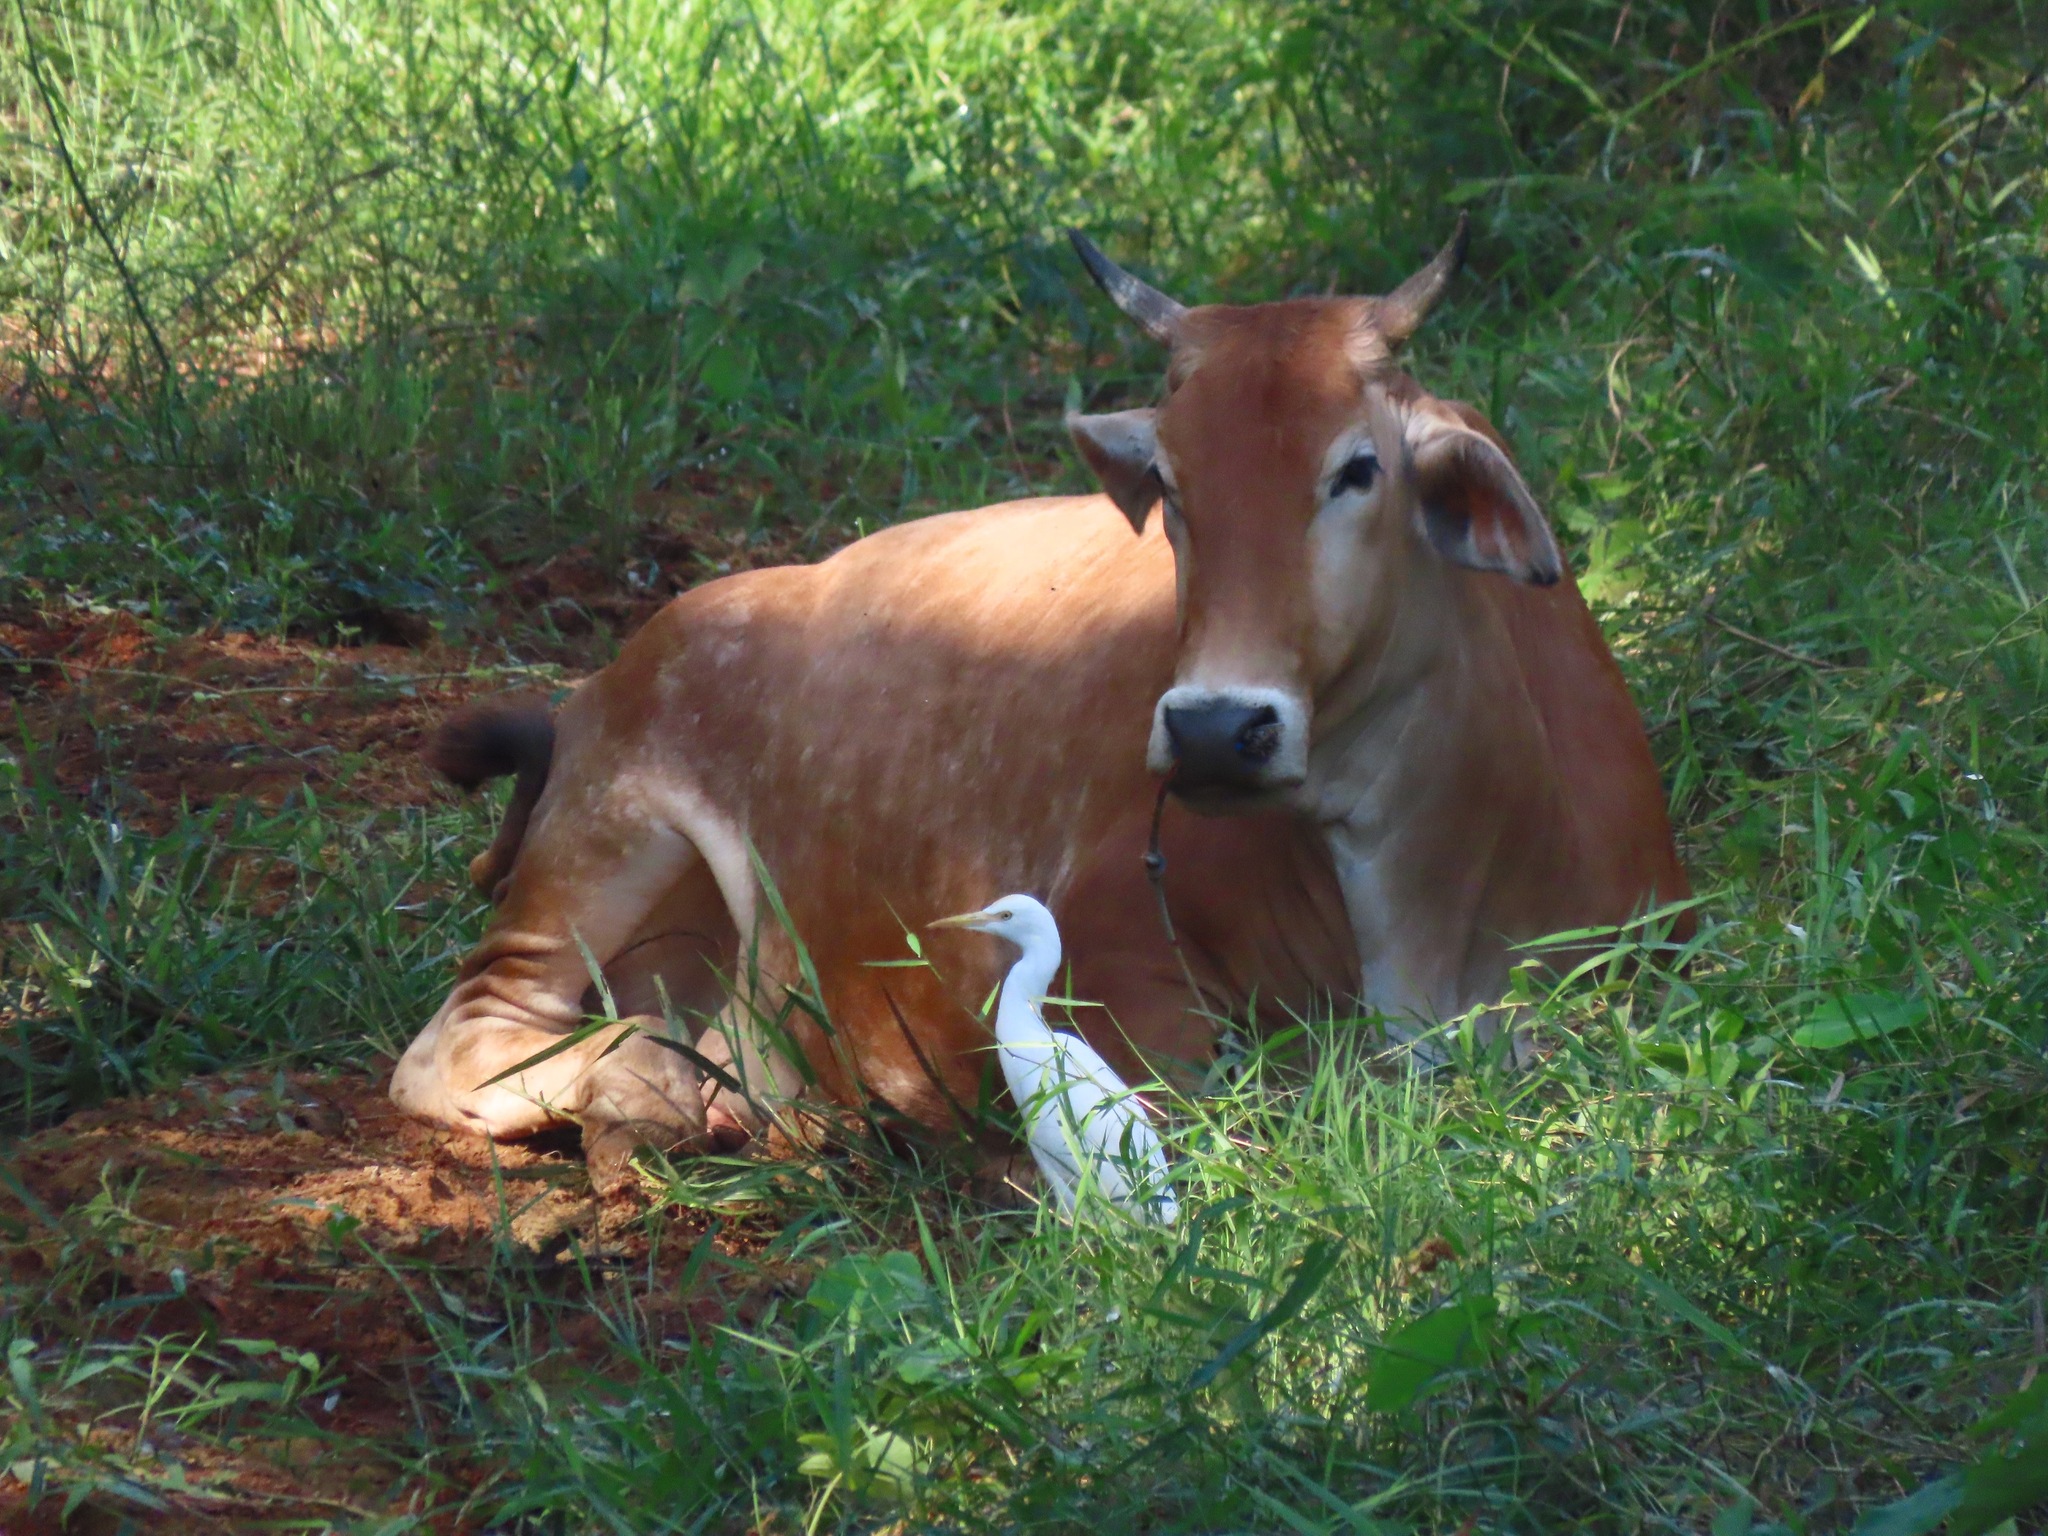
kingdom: Animalia
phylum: Chordata
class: Aves
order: Pelecaniformes
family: Ardeidae
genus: Bubulcus
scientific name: Bubulcus coromandus
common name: Eastern cattle egret
